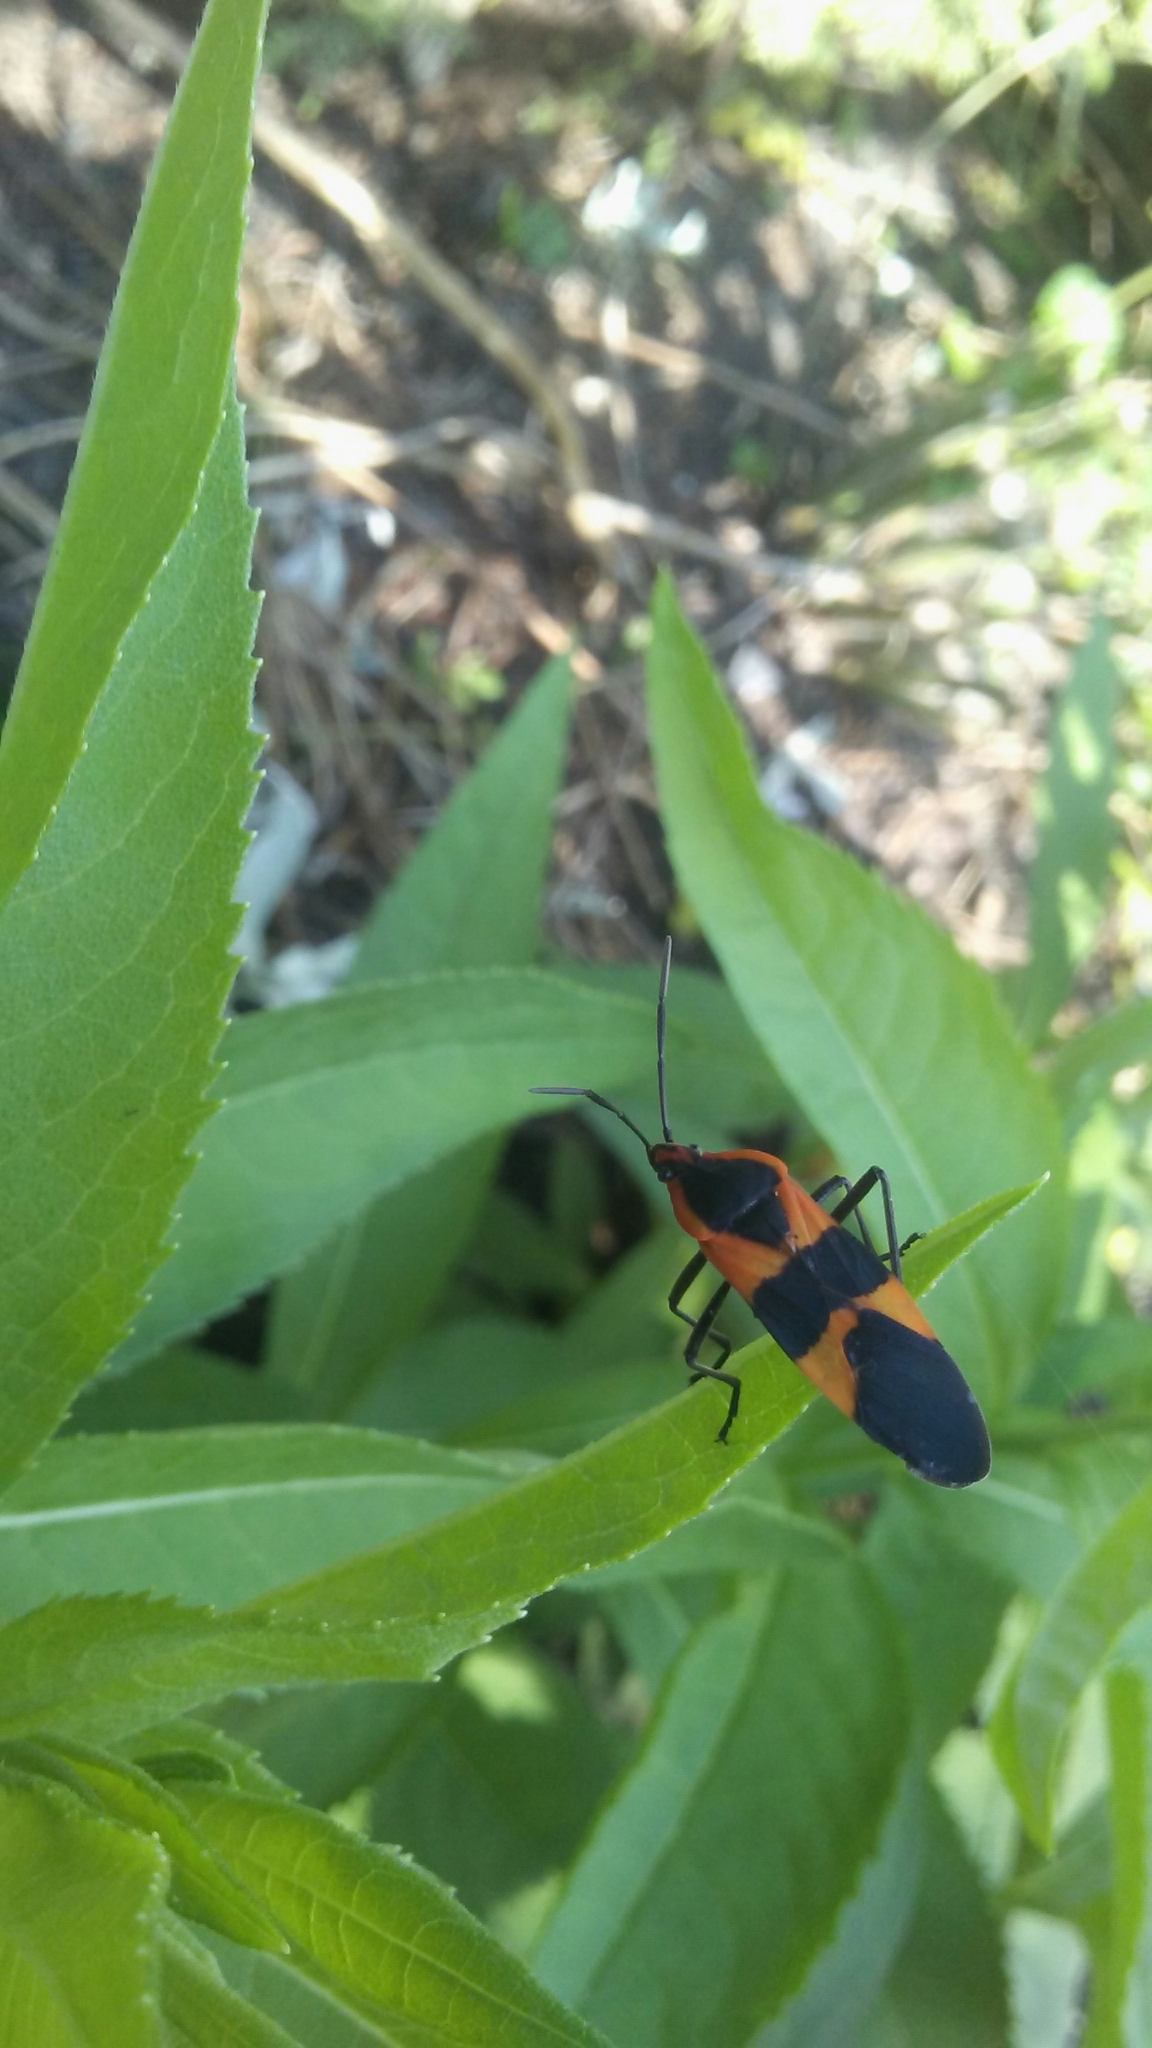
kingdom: Animalia
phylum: Arthropoda
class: Insecta
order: Hemiptera
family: Lygaeidae
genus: Oncopeltus
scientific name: Oncopeltus fasciatus
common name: Large milkweed bug
